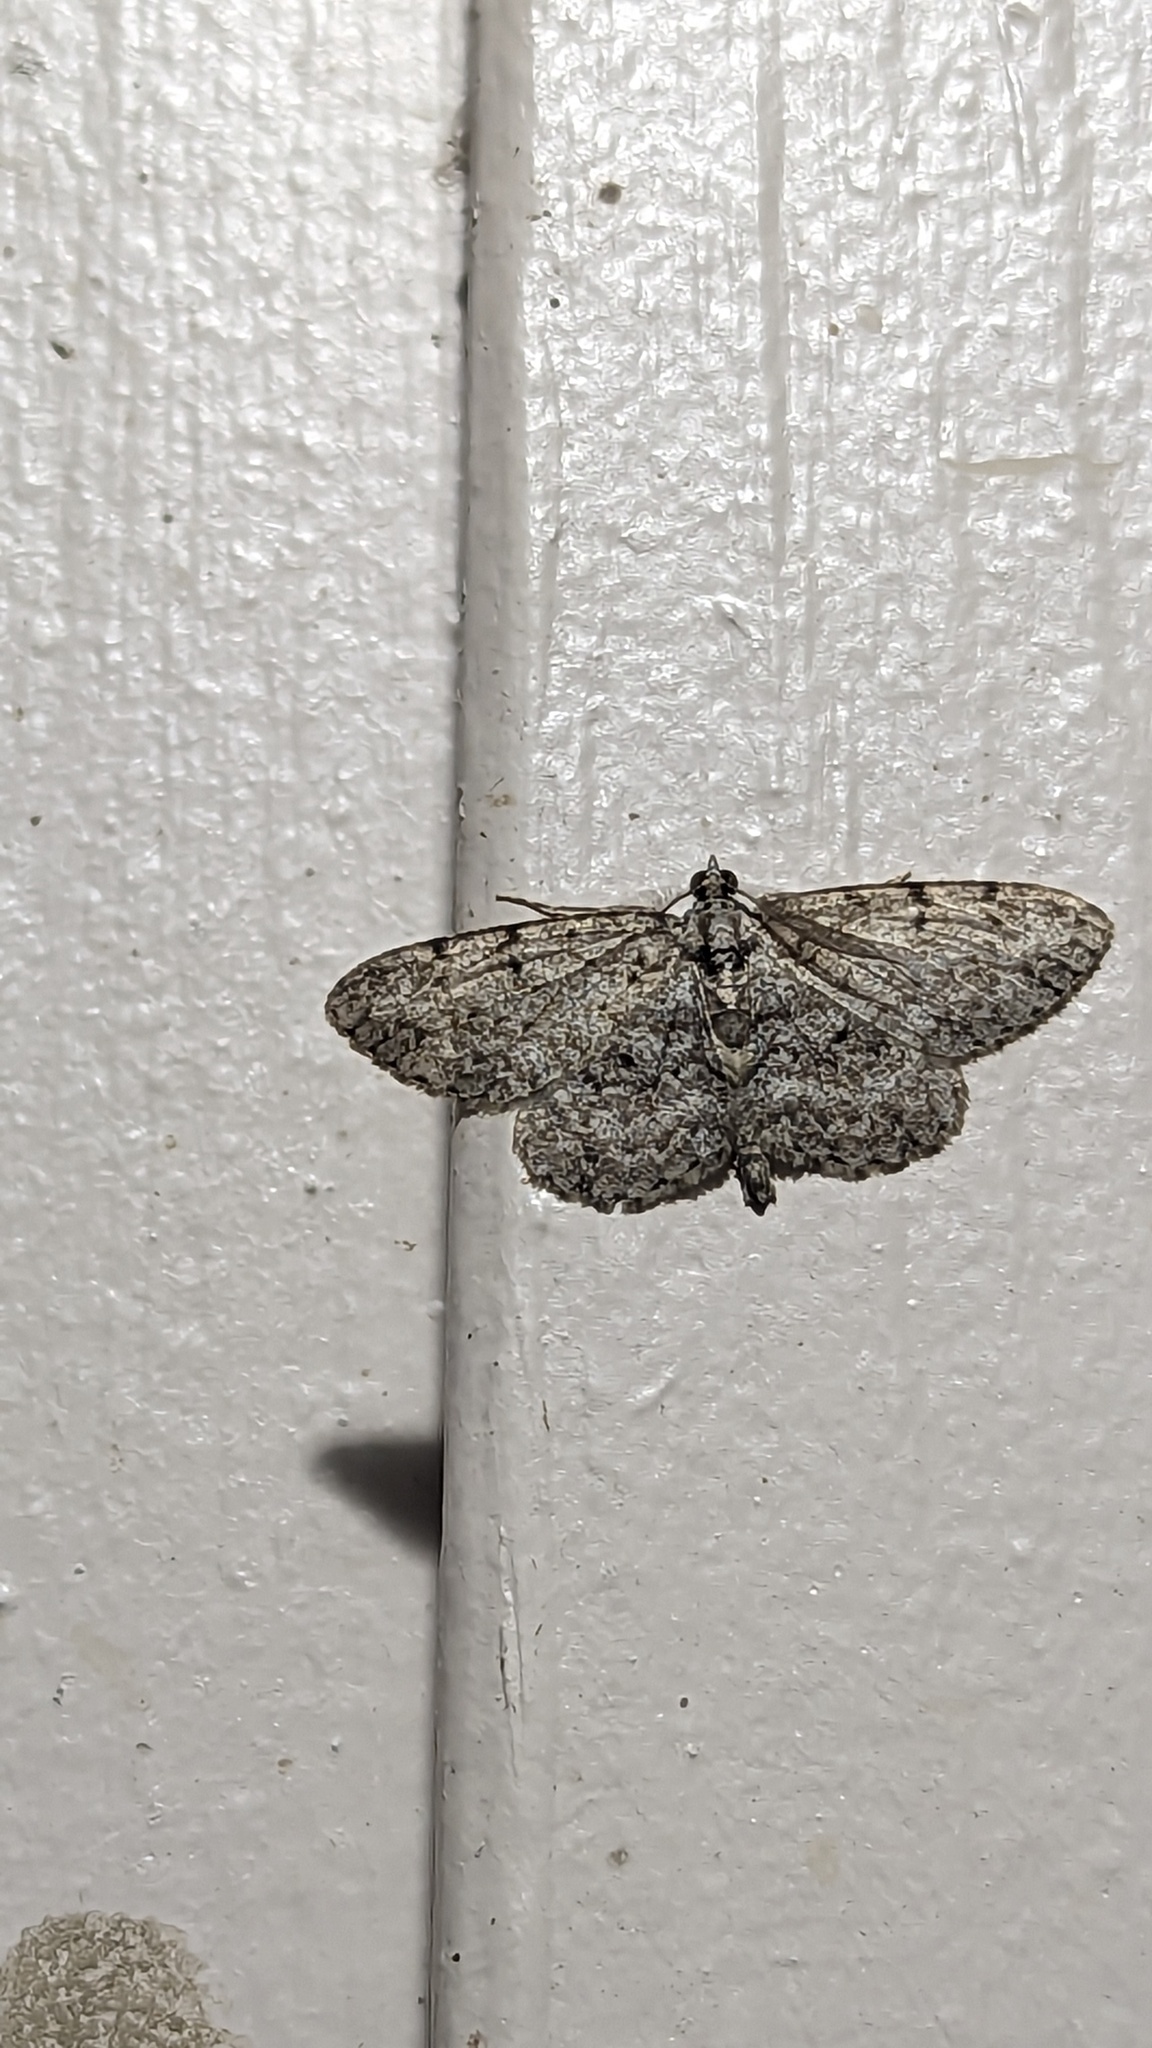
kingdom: Animalia
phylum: Arthropoda
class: Insecta
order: Lepidoptera
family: Geometridae
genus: Protoboarmia
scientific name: Protoboarmia porcelaria
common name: Porcelain gray
